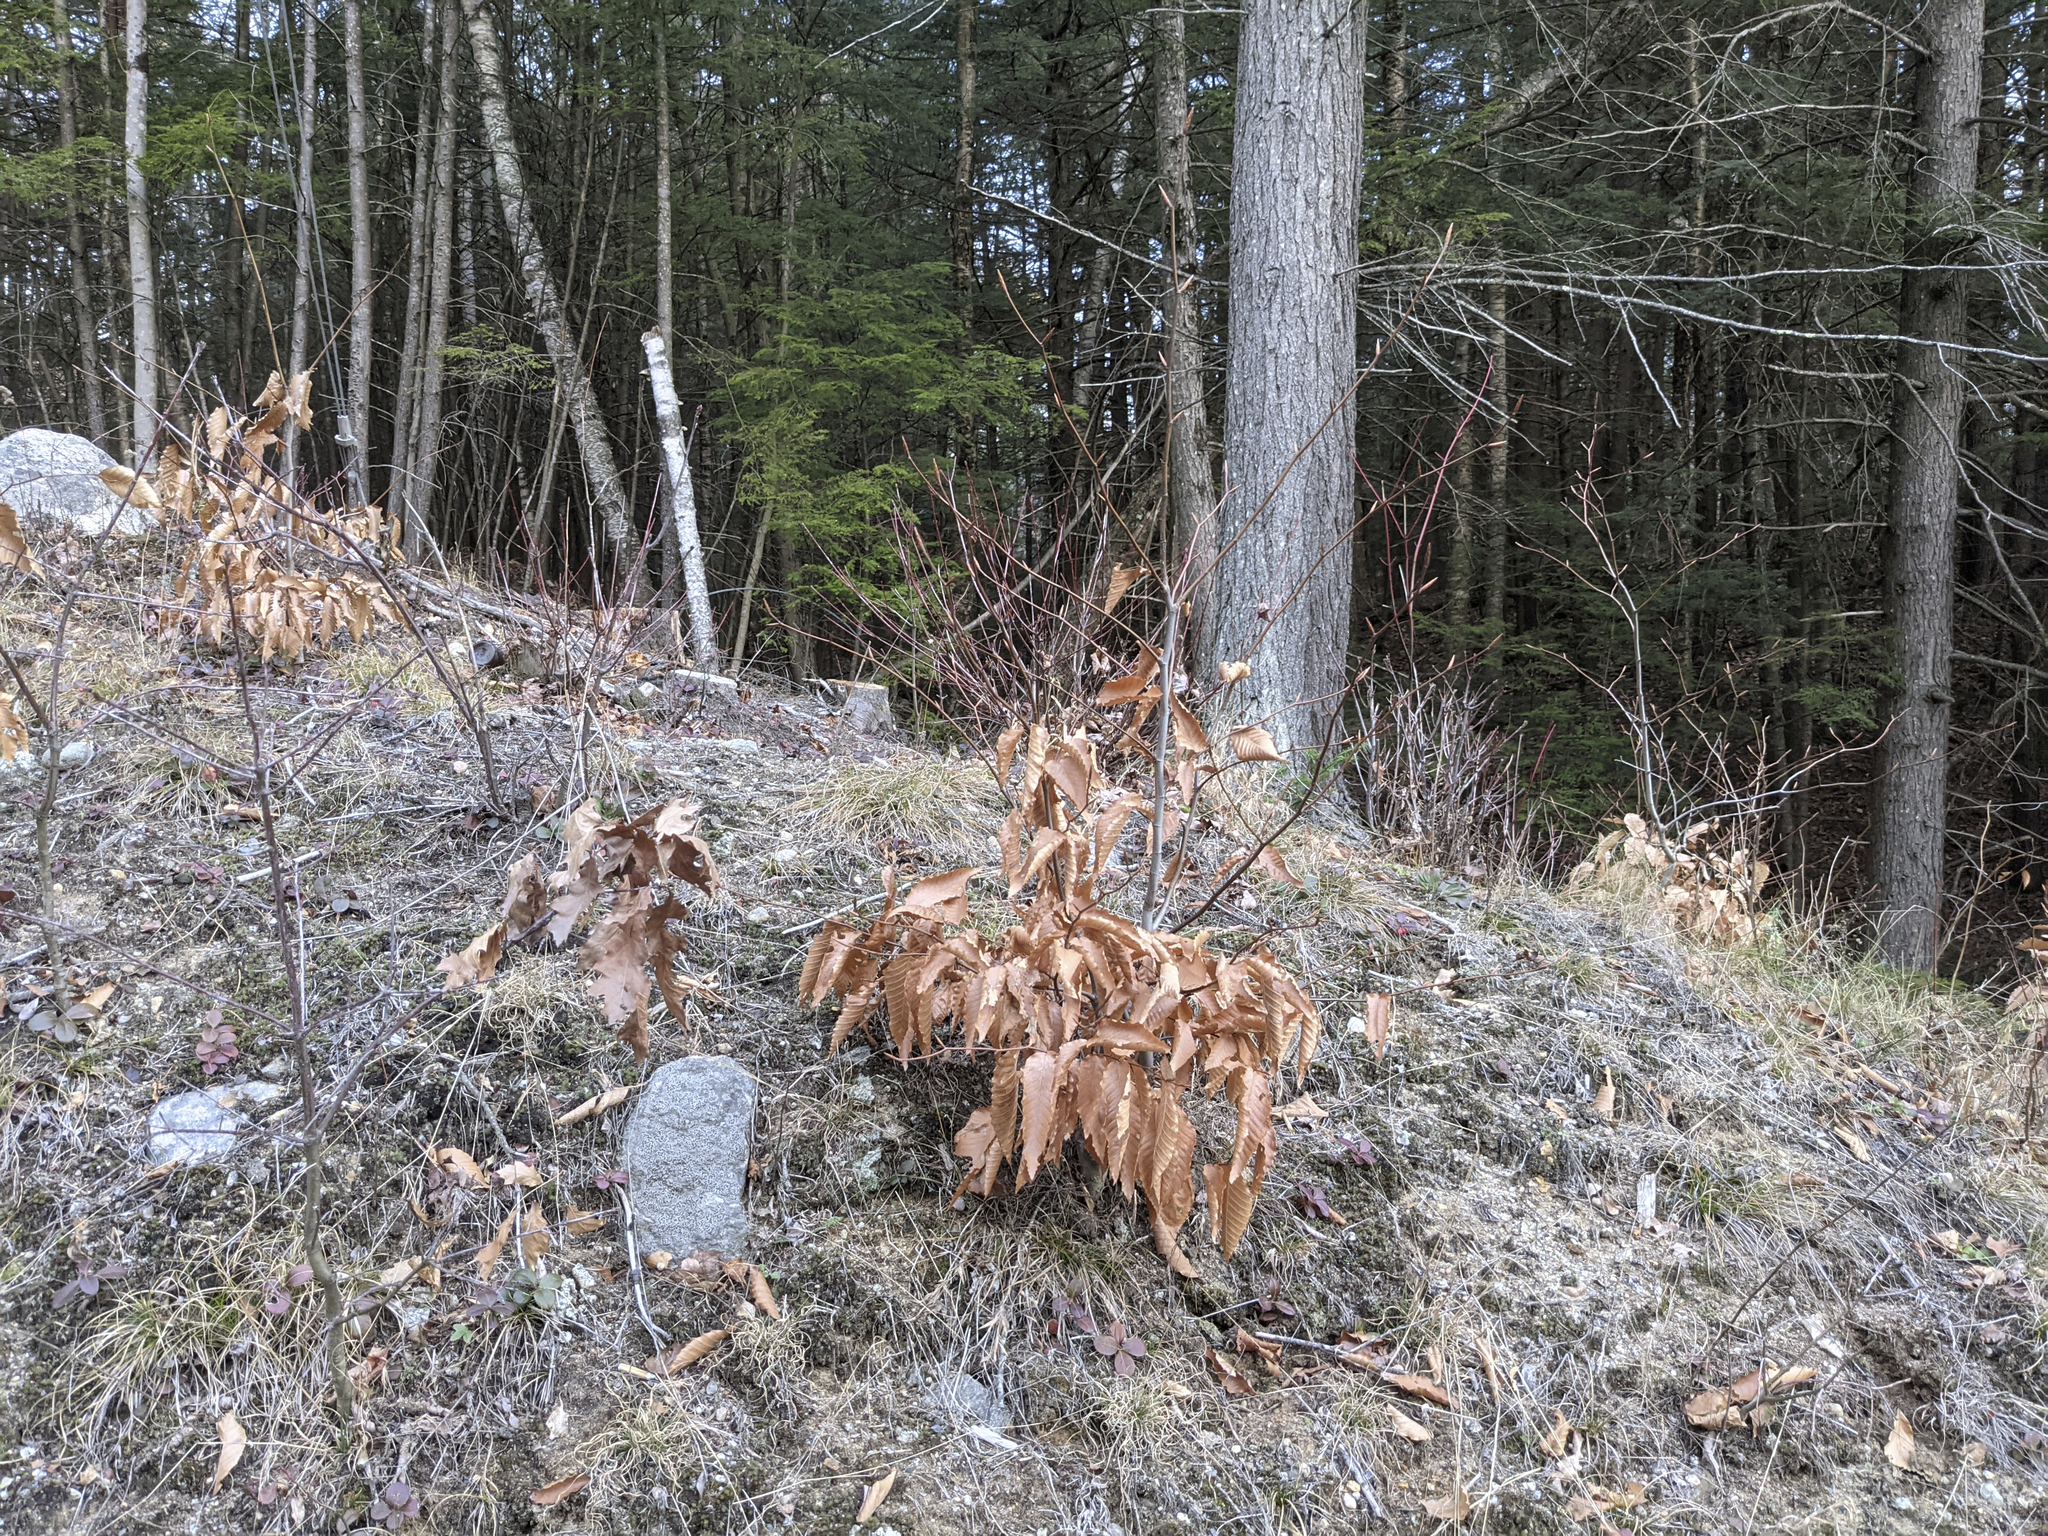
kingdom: Plantae
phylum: Tracheophyta
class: Magnoliopsida
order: Fagales
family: Fagaceae
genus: Fagus
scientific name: Fagus grandifolia
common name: American beech
